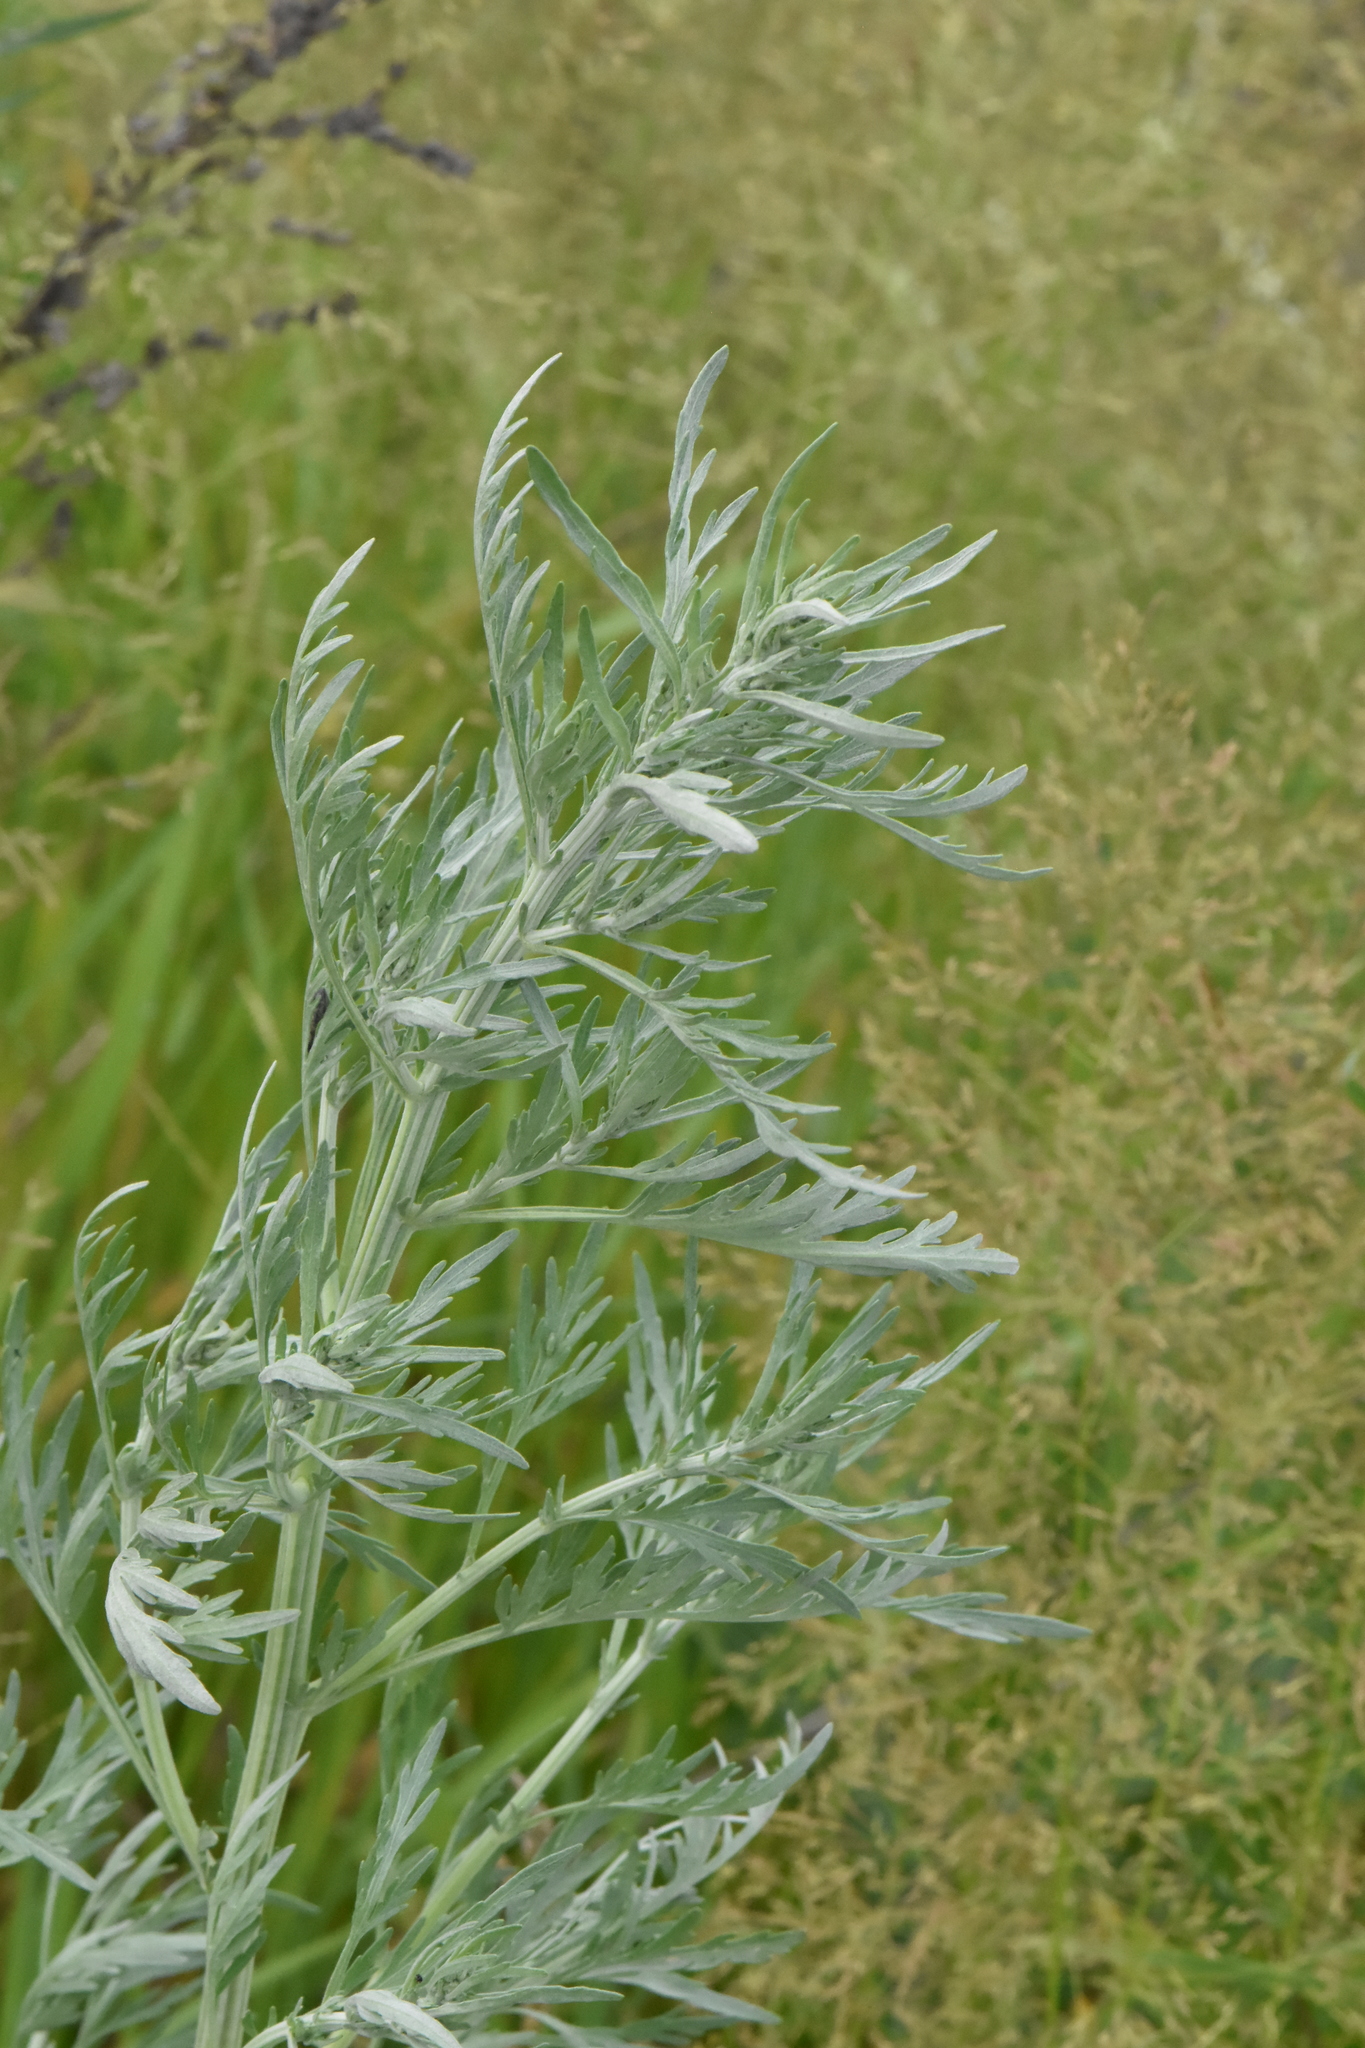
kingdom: Plantae
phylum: Tracheophyta
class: Magnoliopsida
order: Asterales
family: Asteraceae
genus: Artemisia
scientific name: Artemisia sieversiana
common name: Sieversian wormwood
